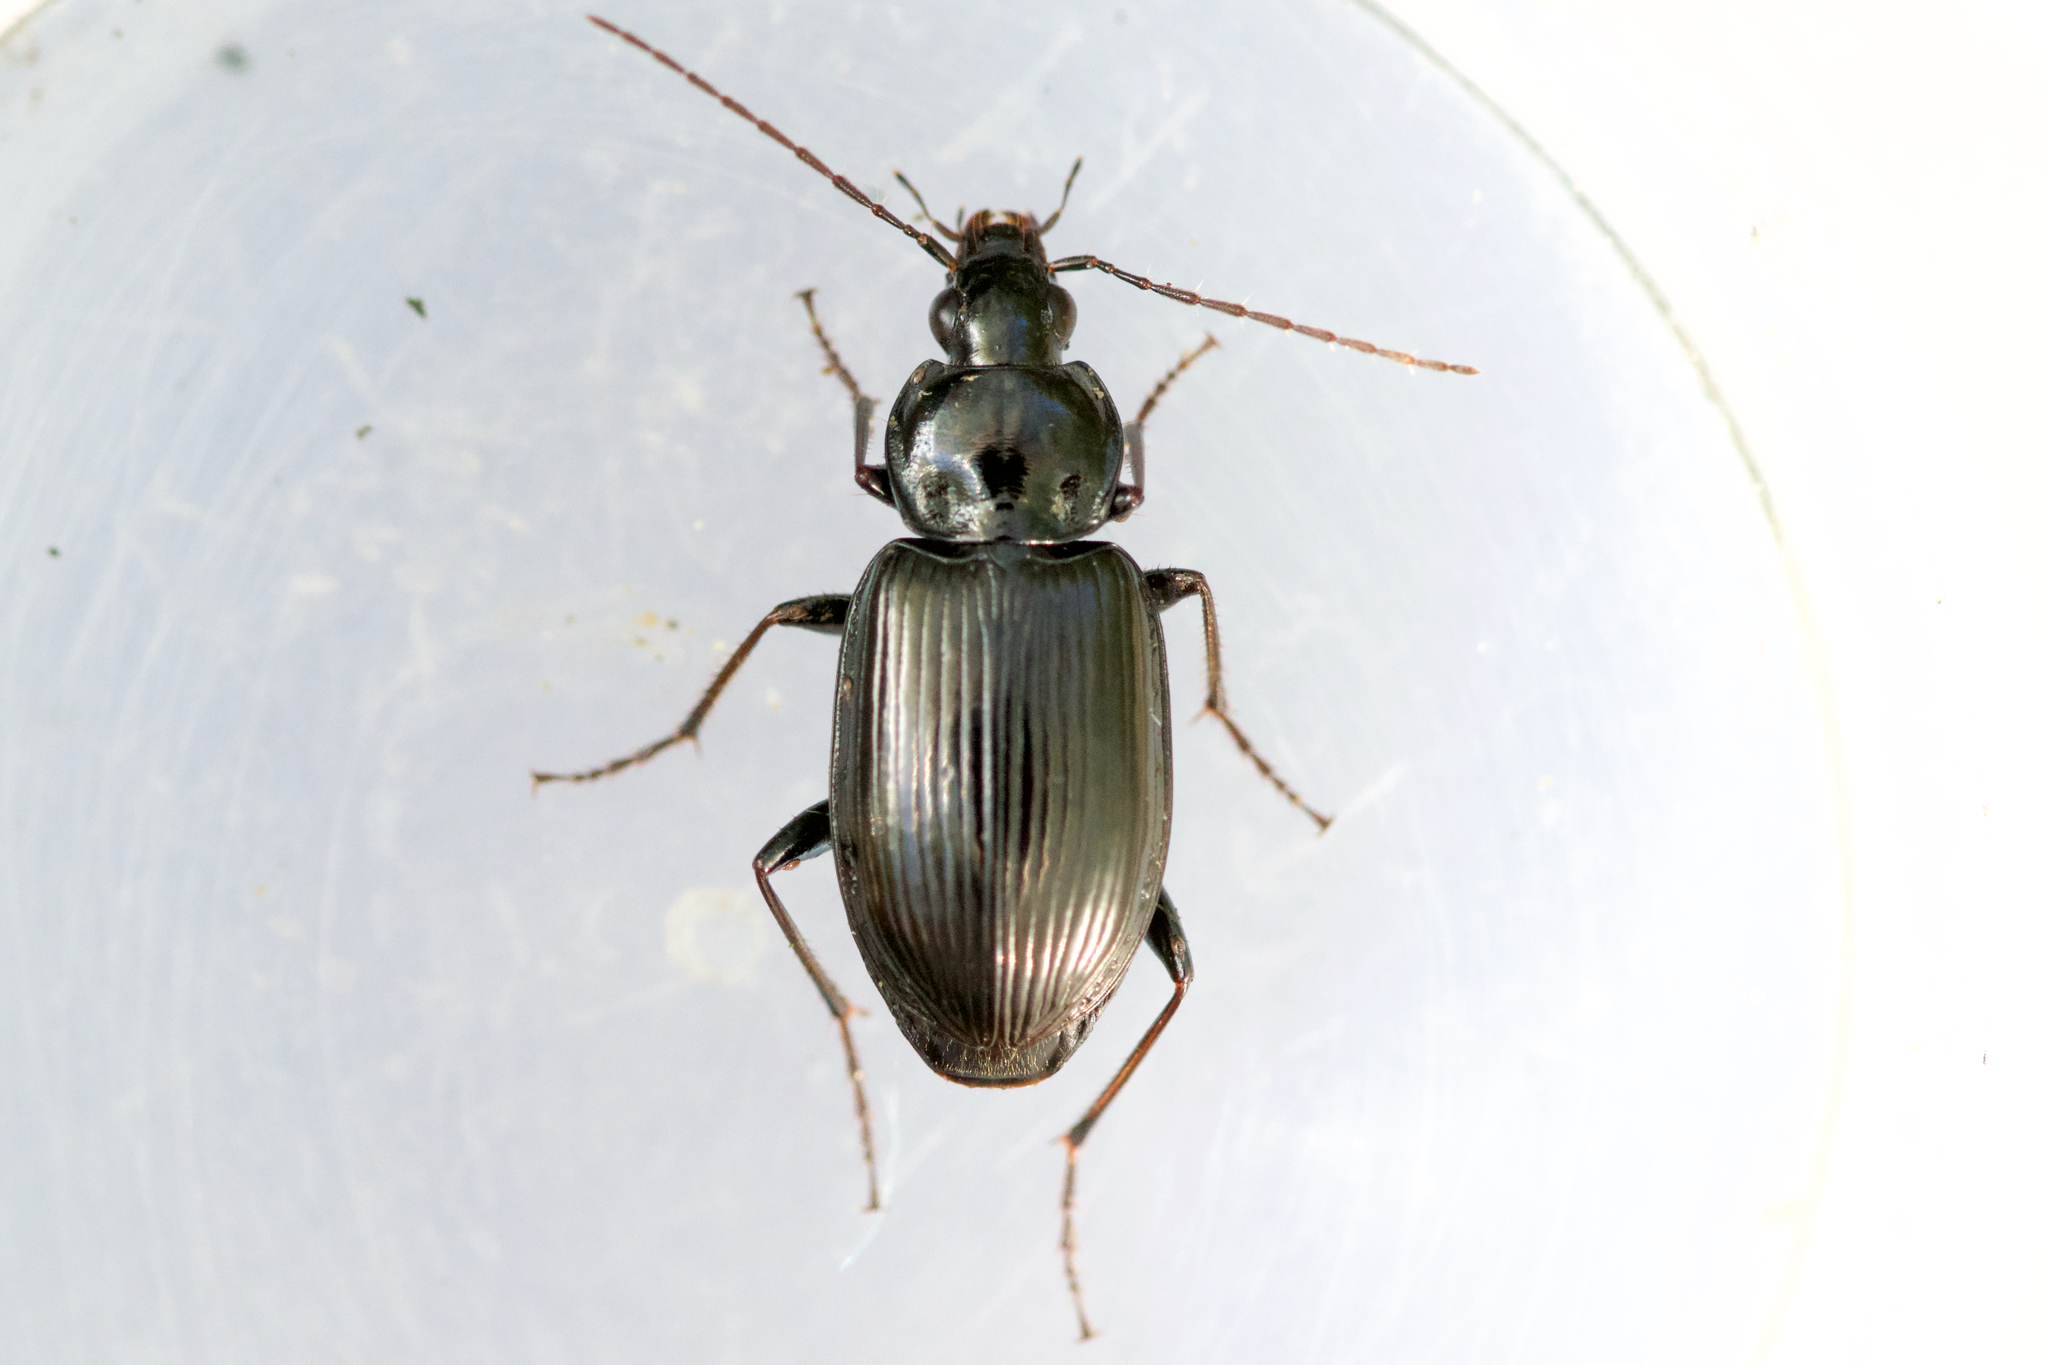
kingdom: Animalia
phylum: Arthropoda
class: Insecta
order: Coleoptera
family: Carabidae
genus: Agonum
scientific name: Agonum melanarium
